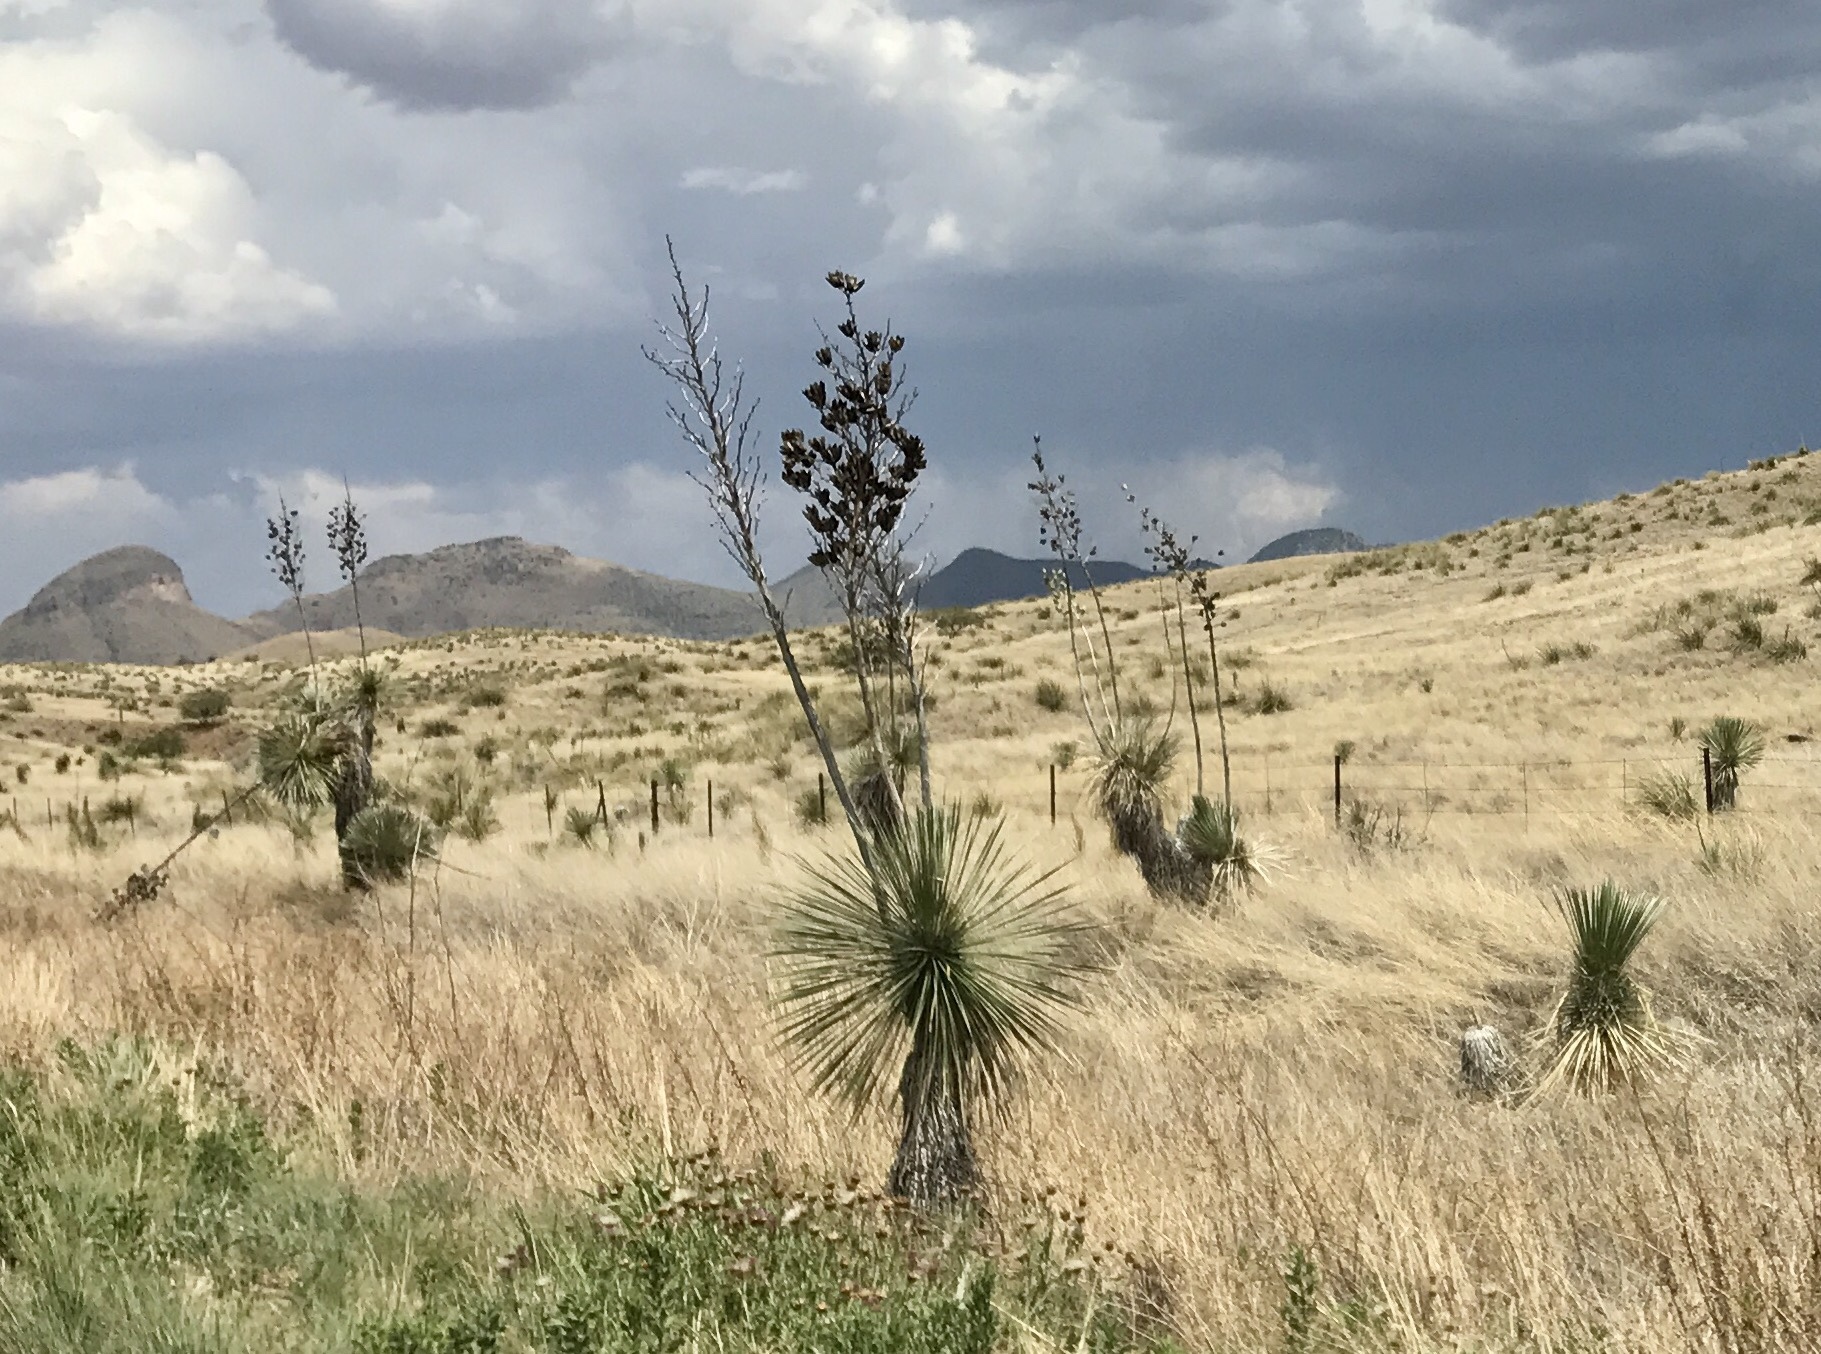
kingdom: Plantae
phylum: Tracheophyta
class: Liliopsida
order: Asparagales
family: Asparagaceae
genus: Yucca
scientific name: Yucca elata
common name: Palmella
